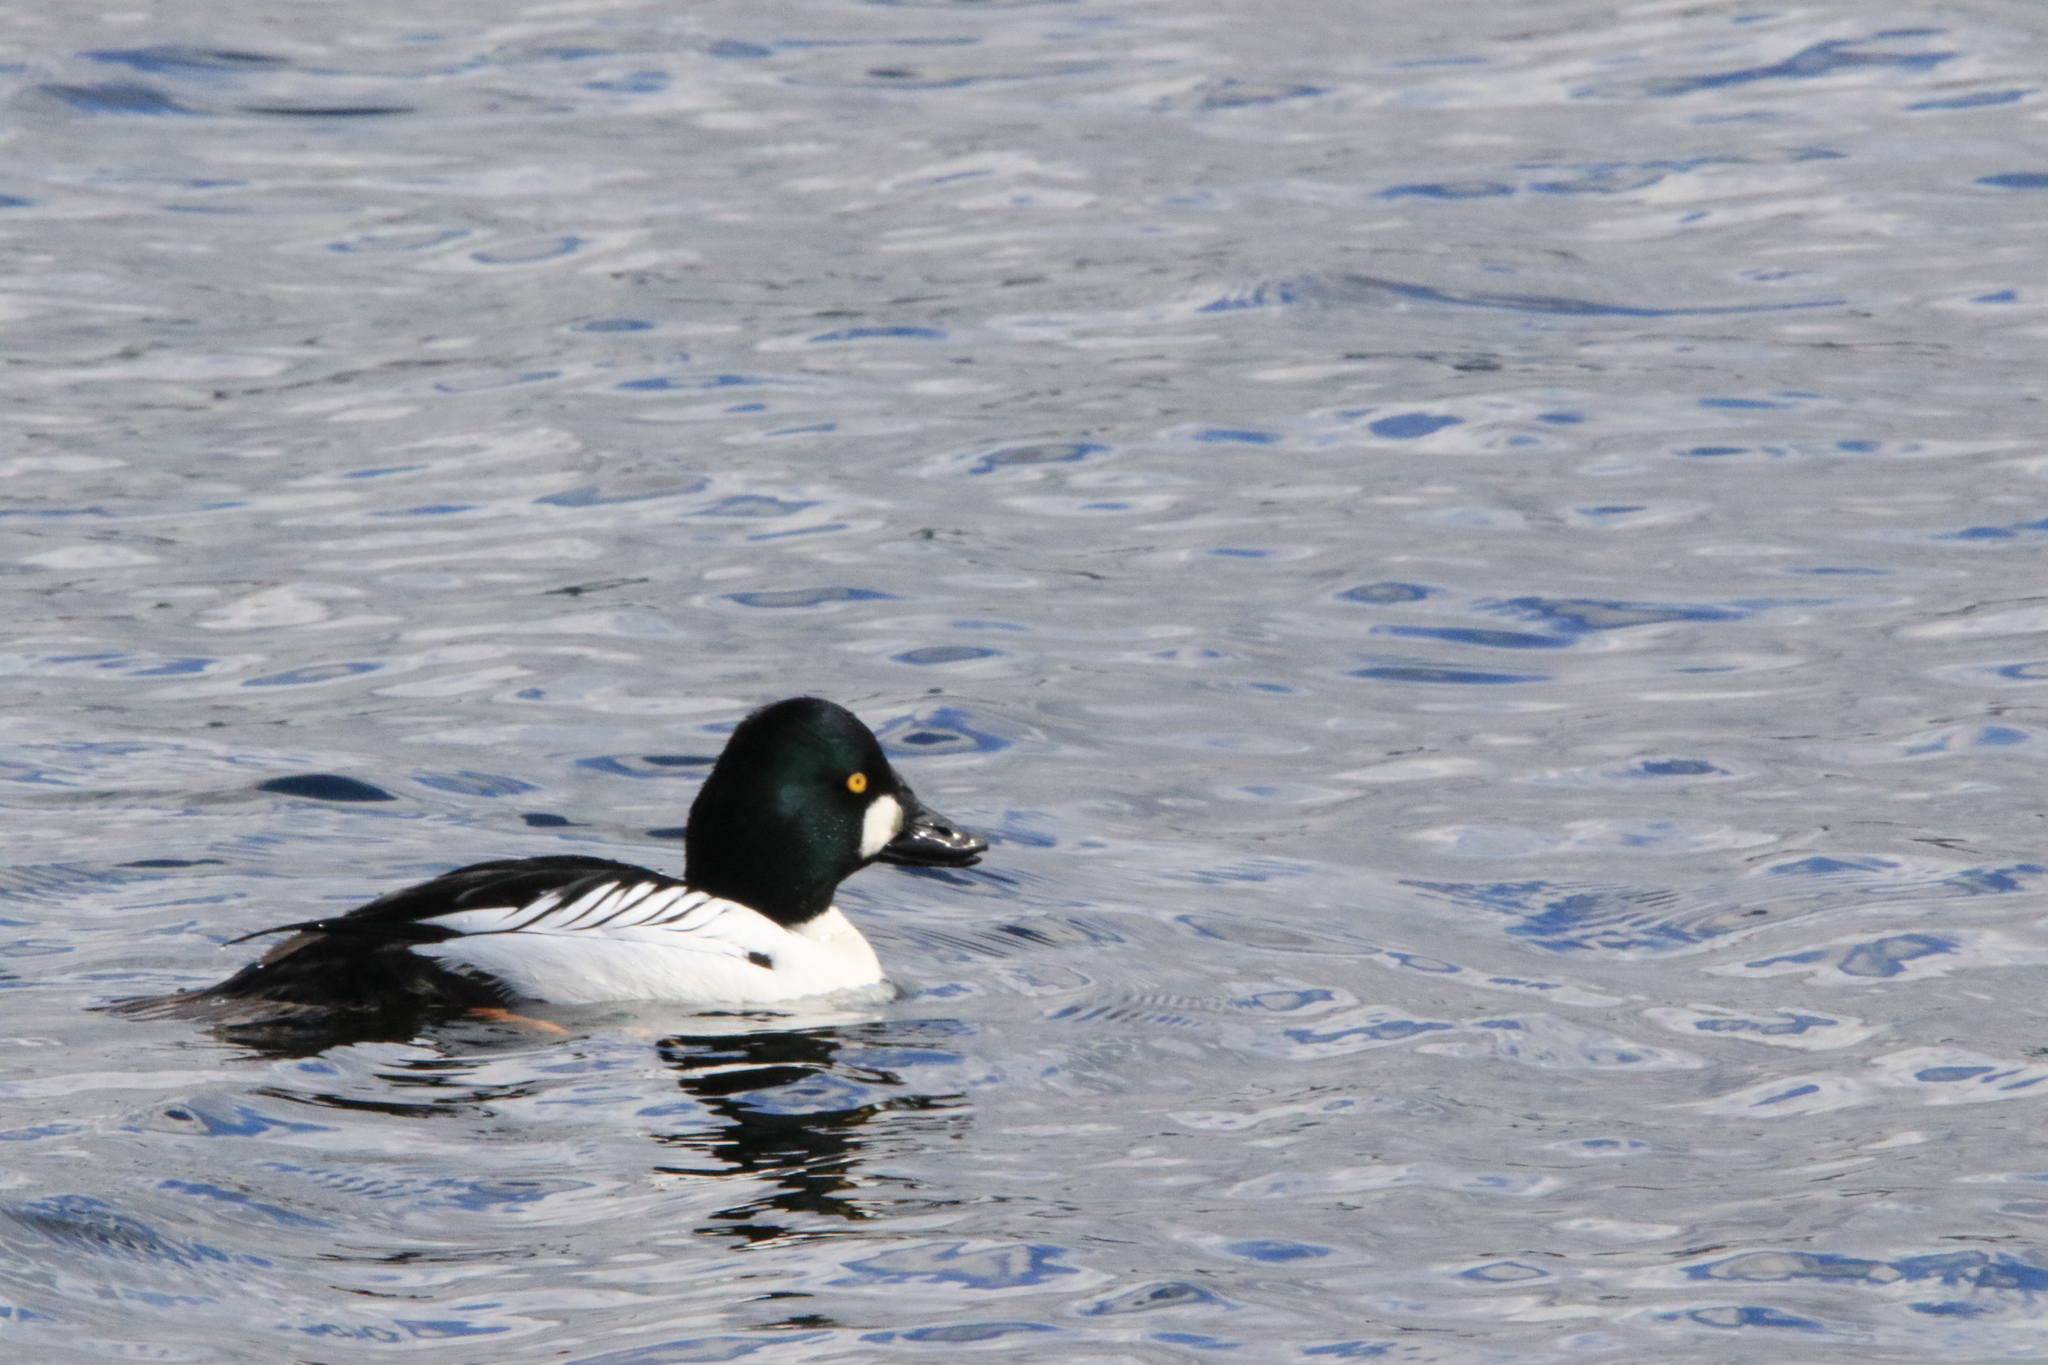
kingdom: Animalia
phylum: Chordata
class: Aves
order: Anseriformes
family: Anatidae
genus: Bucephala
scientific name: Bucephala clangula
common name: Common goldeneye
